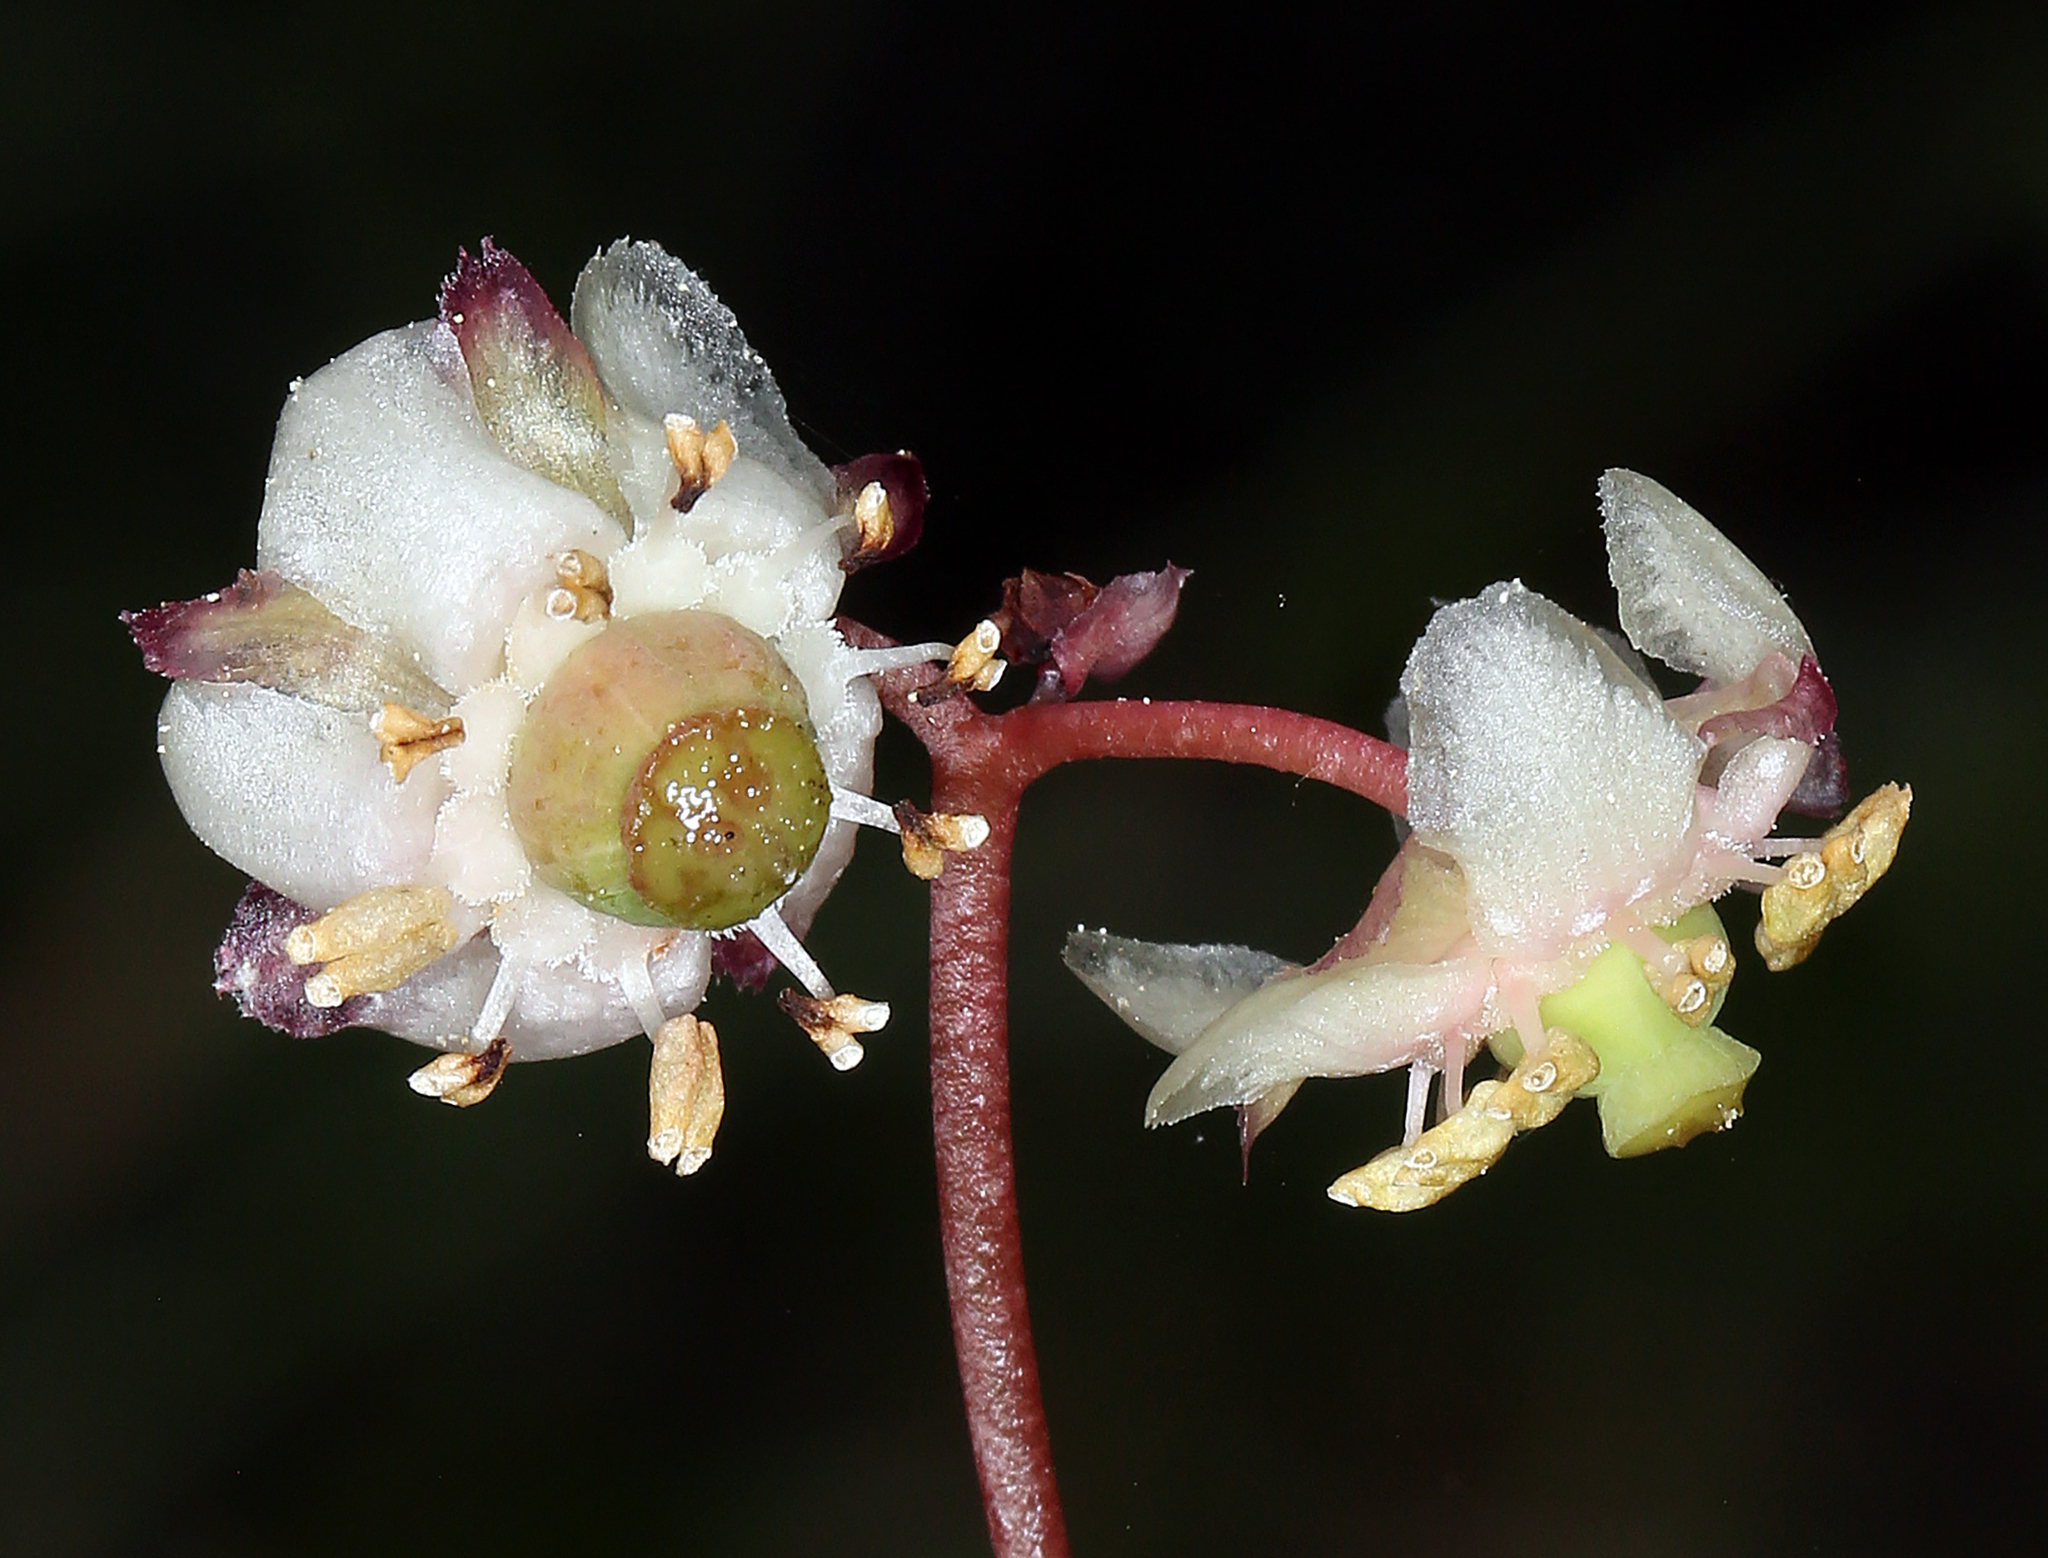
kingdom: Plantae
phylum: Tracheophyta
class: Magnoliopsida
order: Ericales
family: Ericaceae
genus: Chimaphila
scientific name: Chimaphila menziesii
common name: Menzies' pipsissewa
